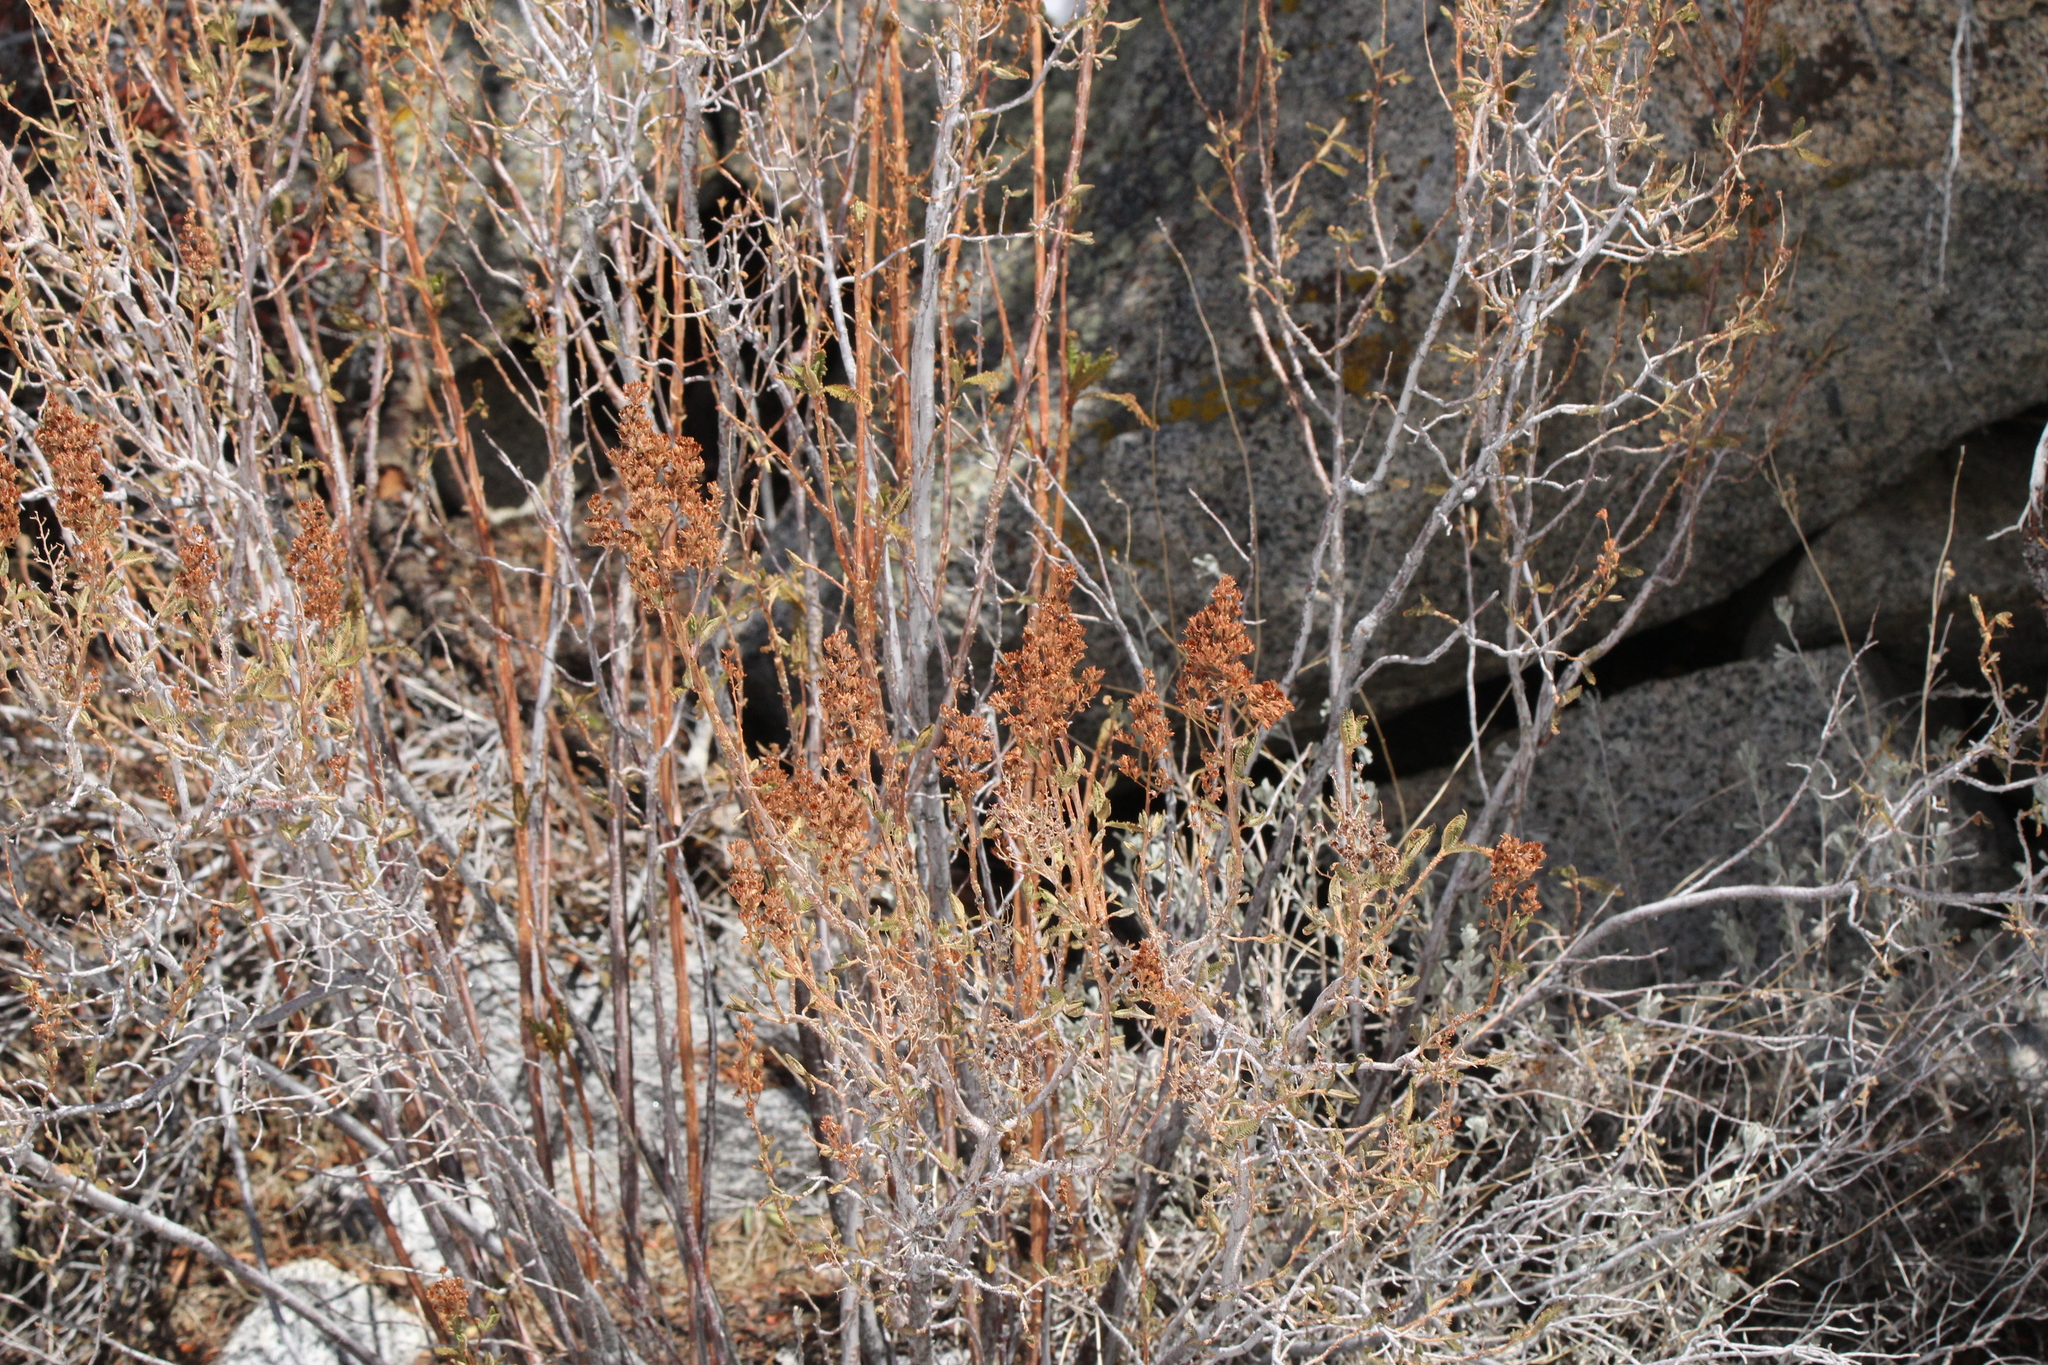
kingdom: Plantae
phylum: Tracheophyta
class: Magnoliopsida
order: Rosales
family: Rosaceae
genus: Chamaebatiaria
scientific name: Chamaebatiaria millefolium
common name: Fernbush
